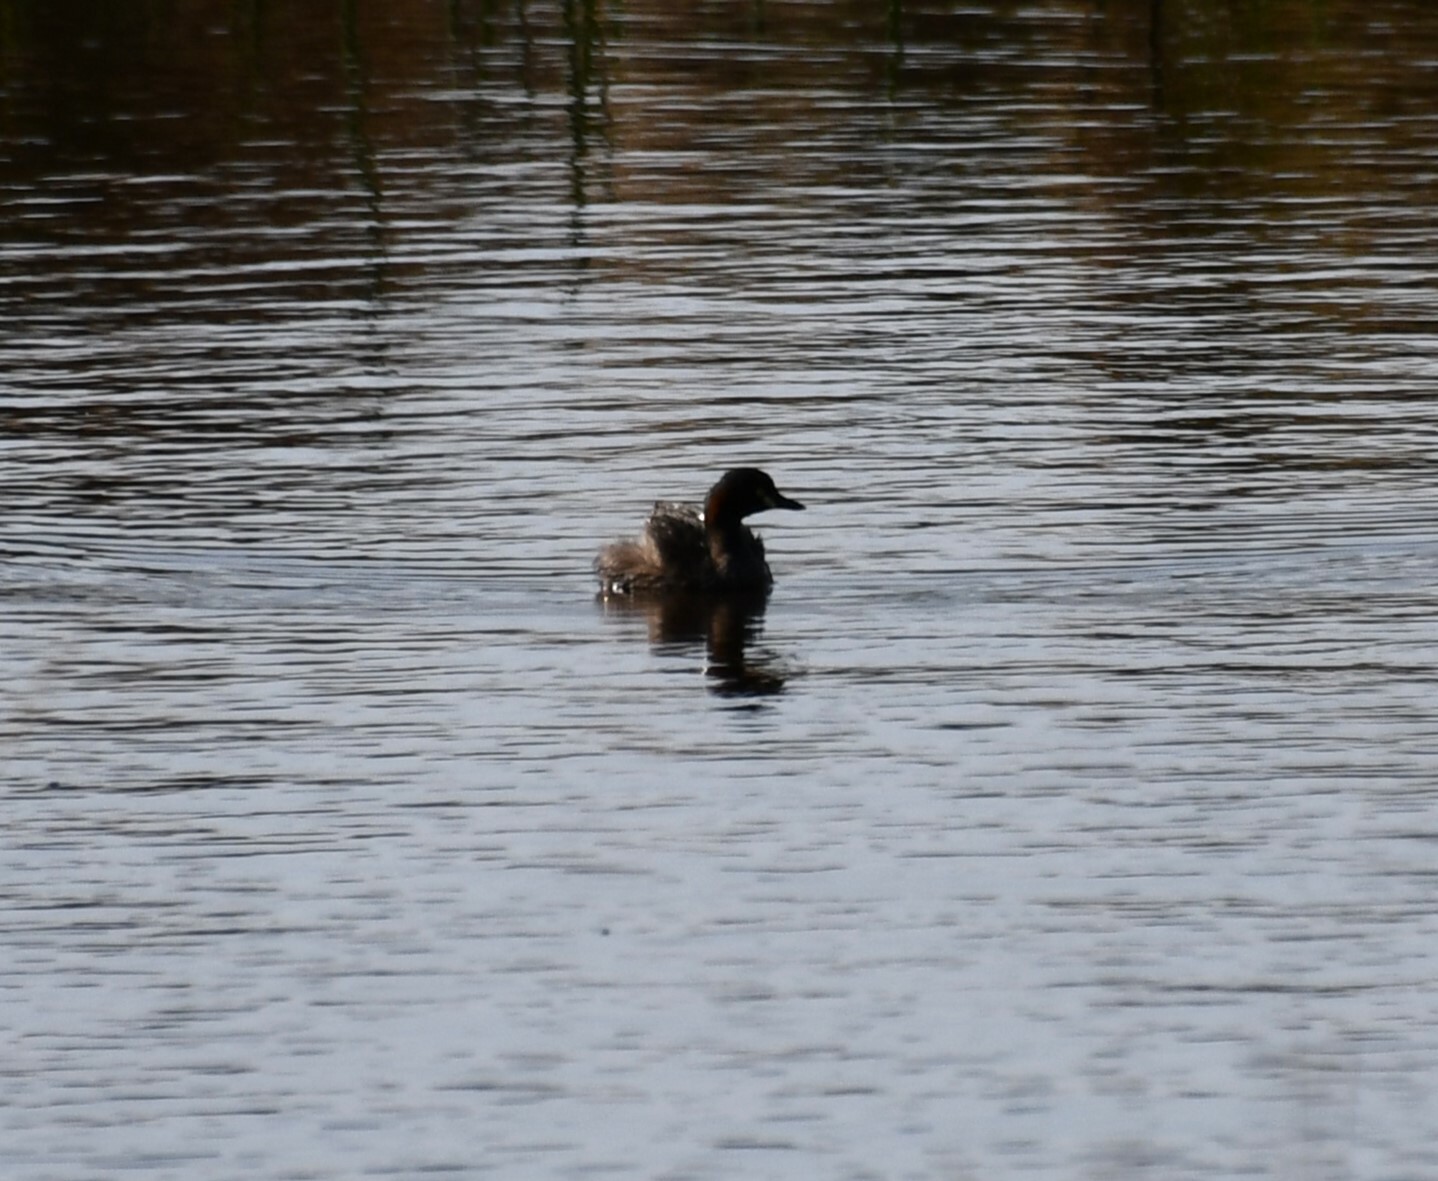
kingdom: Animalia
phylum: Chordata
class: Aves
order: Podicipediformes
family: Podicipedidae
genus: Tachybaptus
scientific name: Tachybaptus novaehollandiae
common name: Australasian grebe
